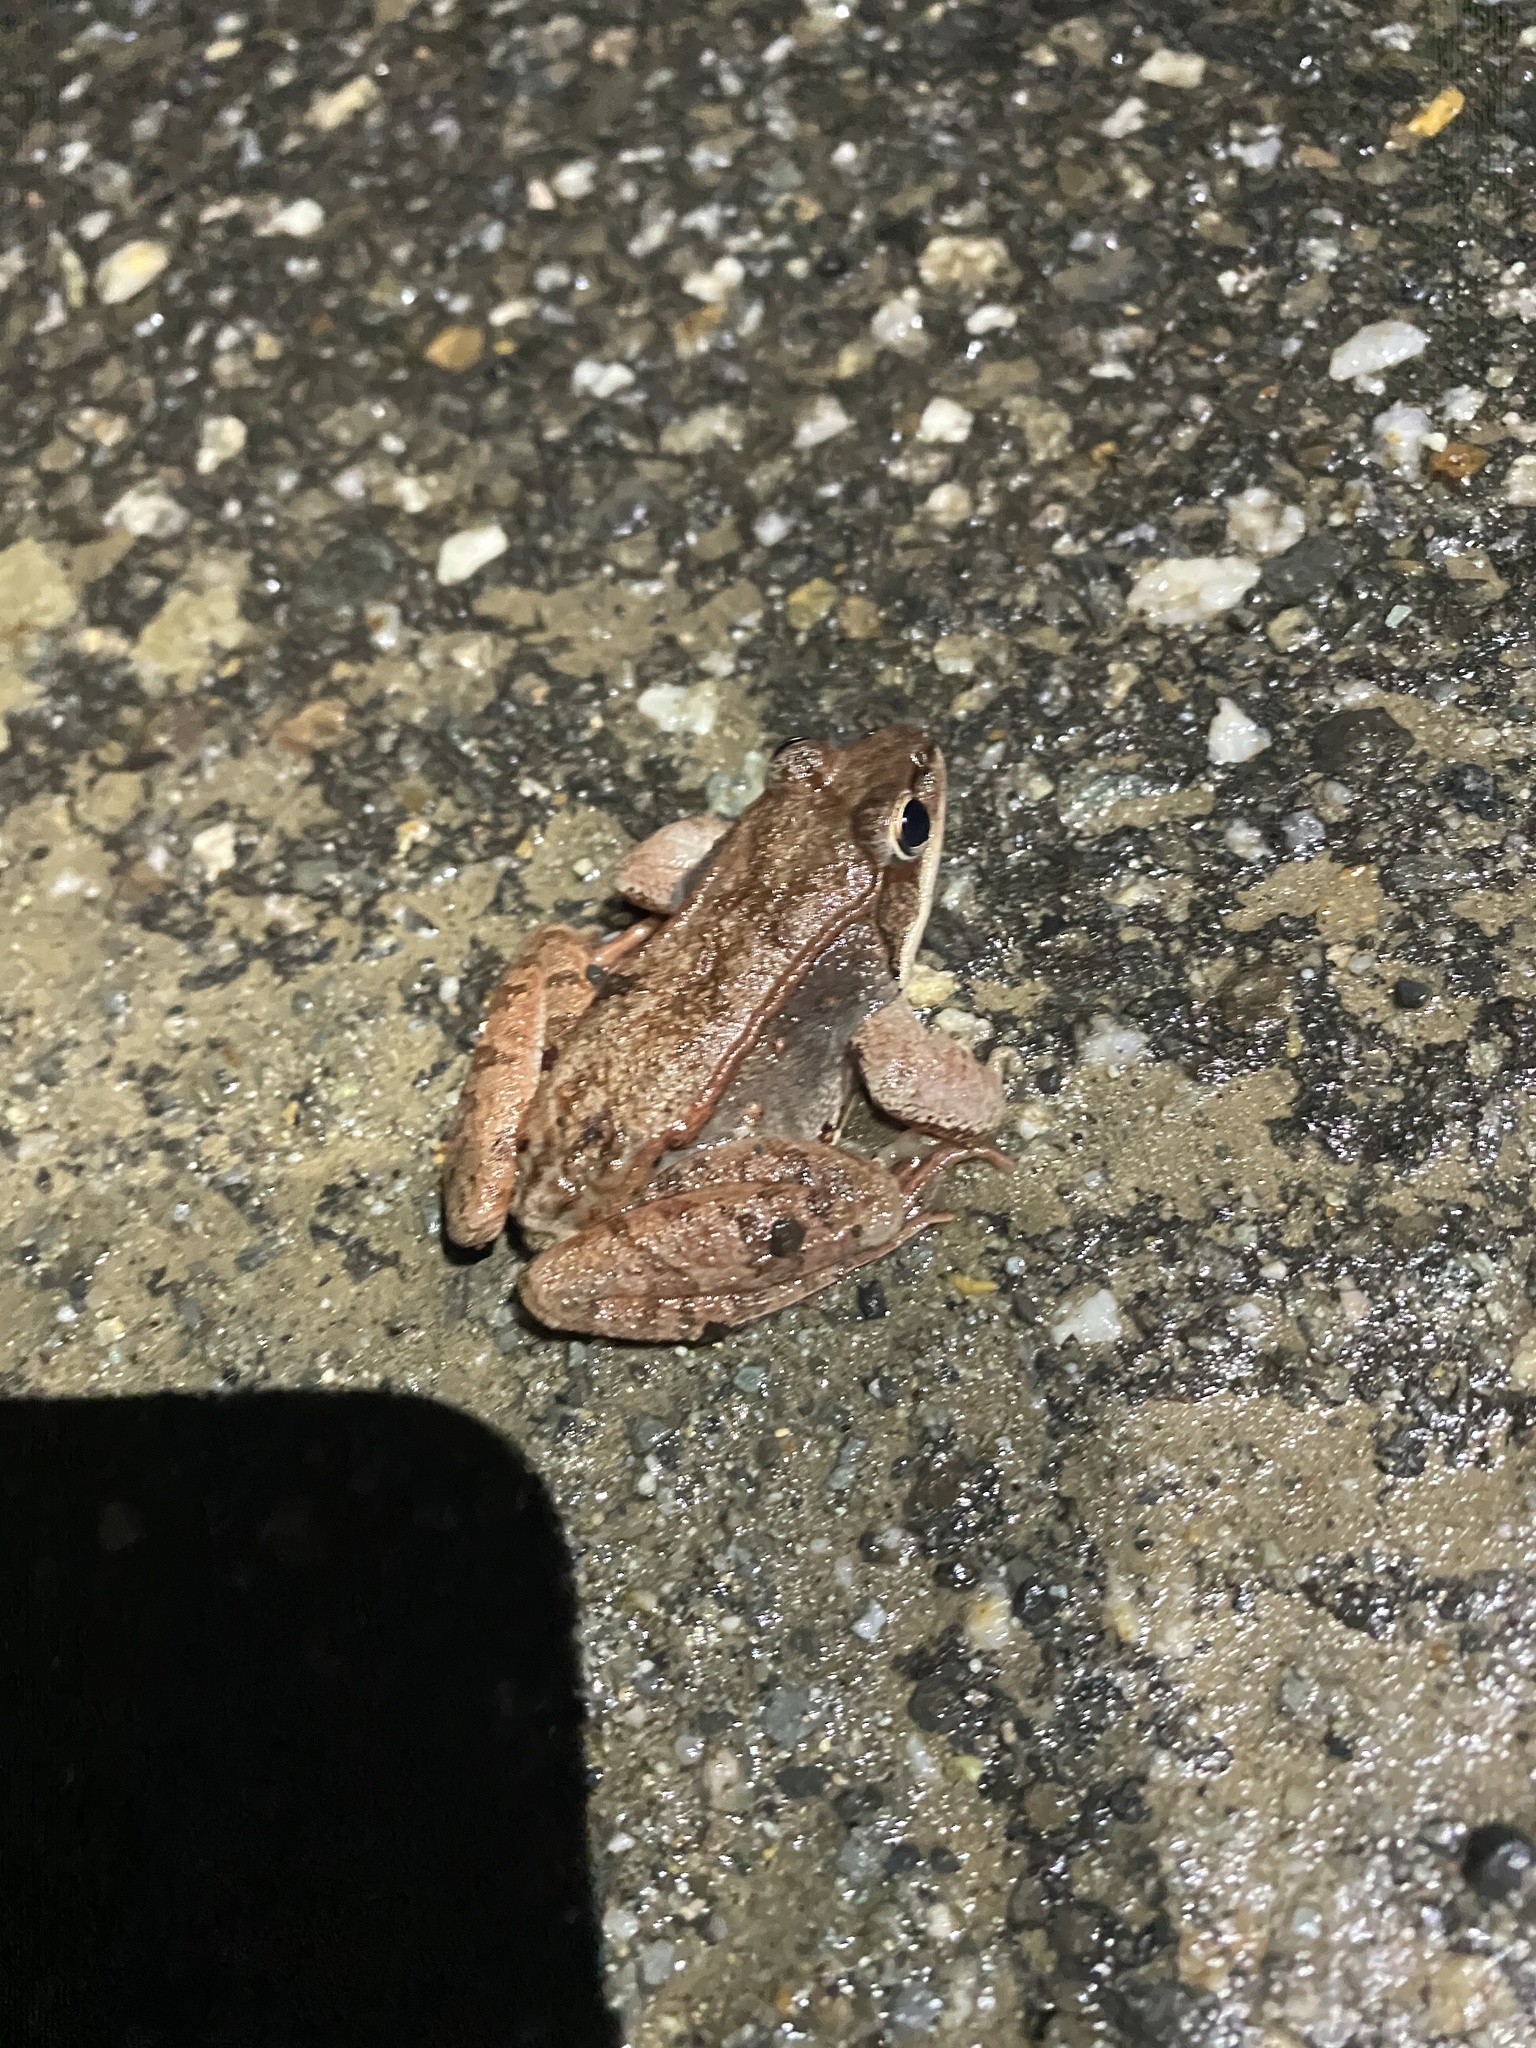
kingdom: Animalia
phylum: Chordata
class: Amphibia
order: Anura
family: Ranidae
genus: Lithobates
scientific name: Lithobates sylvaticus
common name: Wood frog
